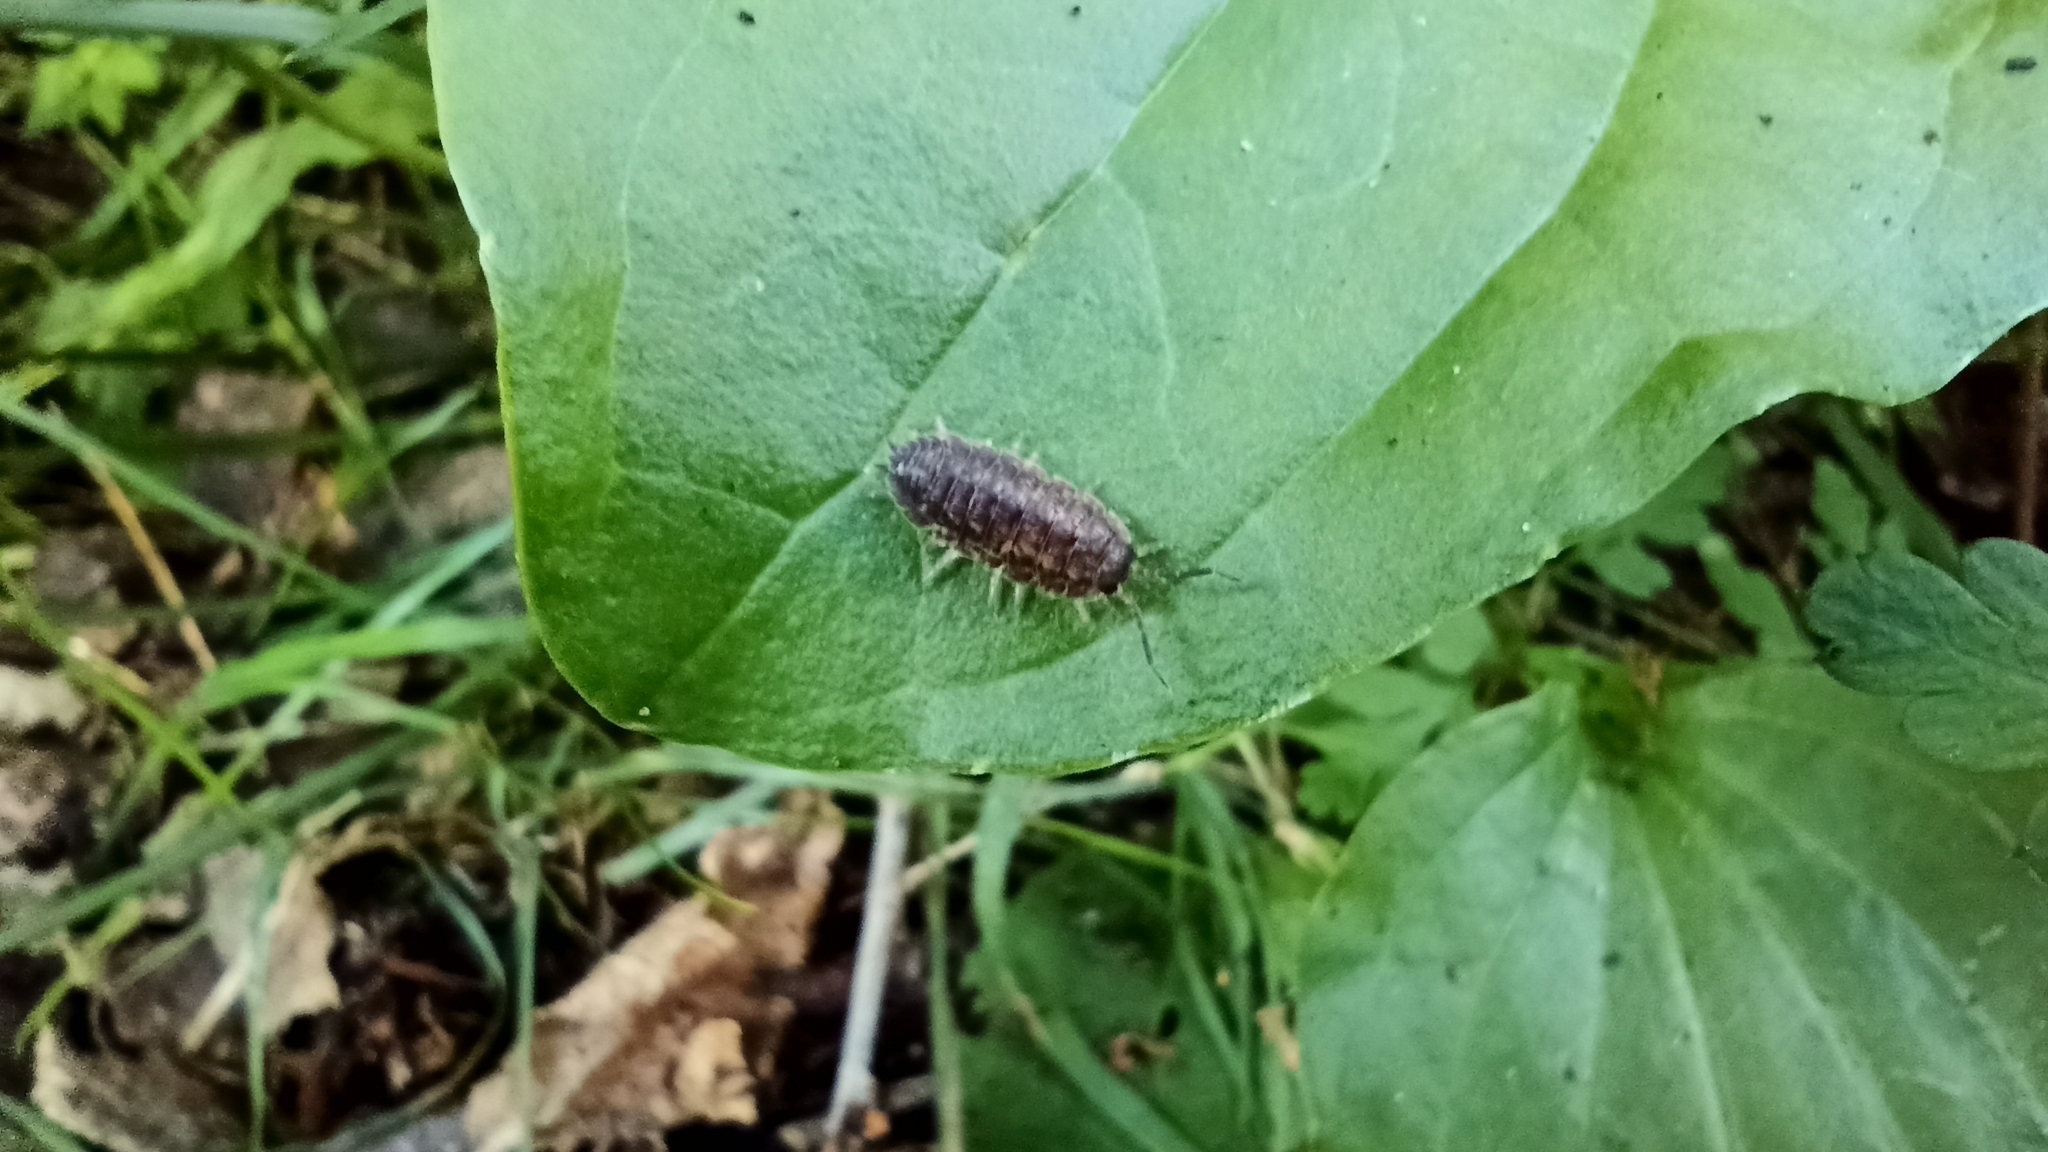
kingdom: Animalia
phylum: Arthropoda
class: Malacostraca
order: Isopoda
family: Porcellionidae
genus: Porcellio
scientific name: Porcellio scaber
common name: Common rough woodlouse
